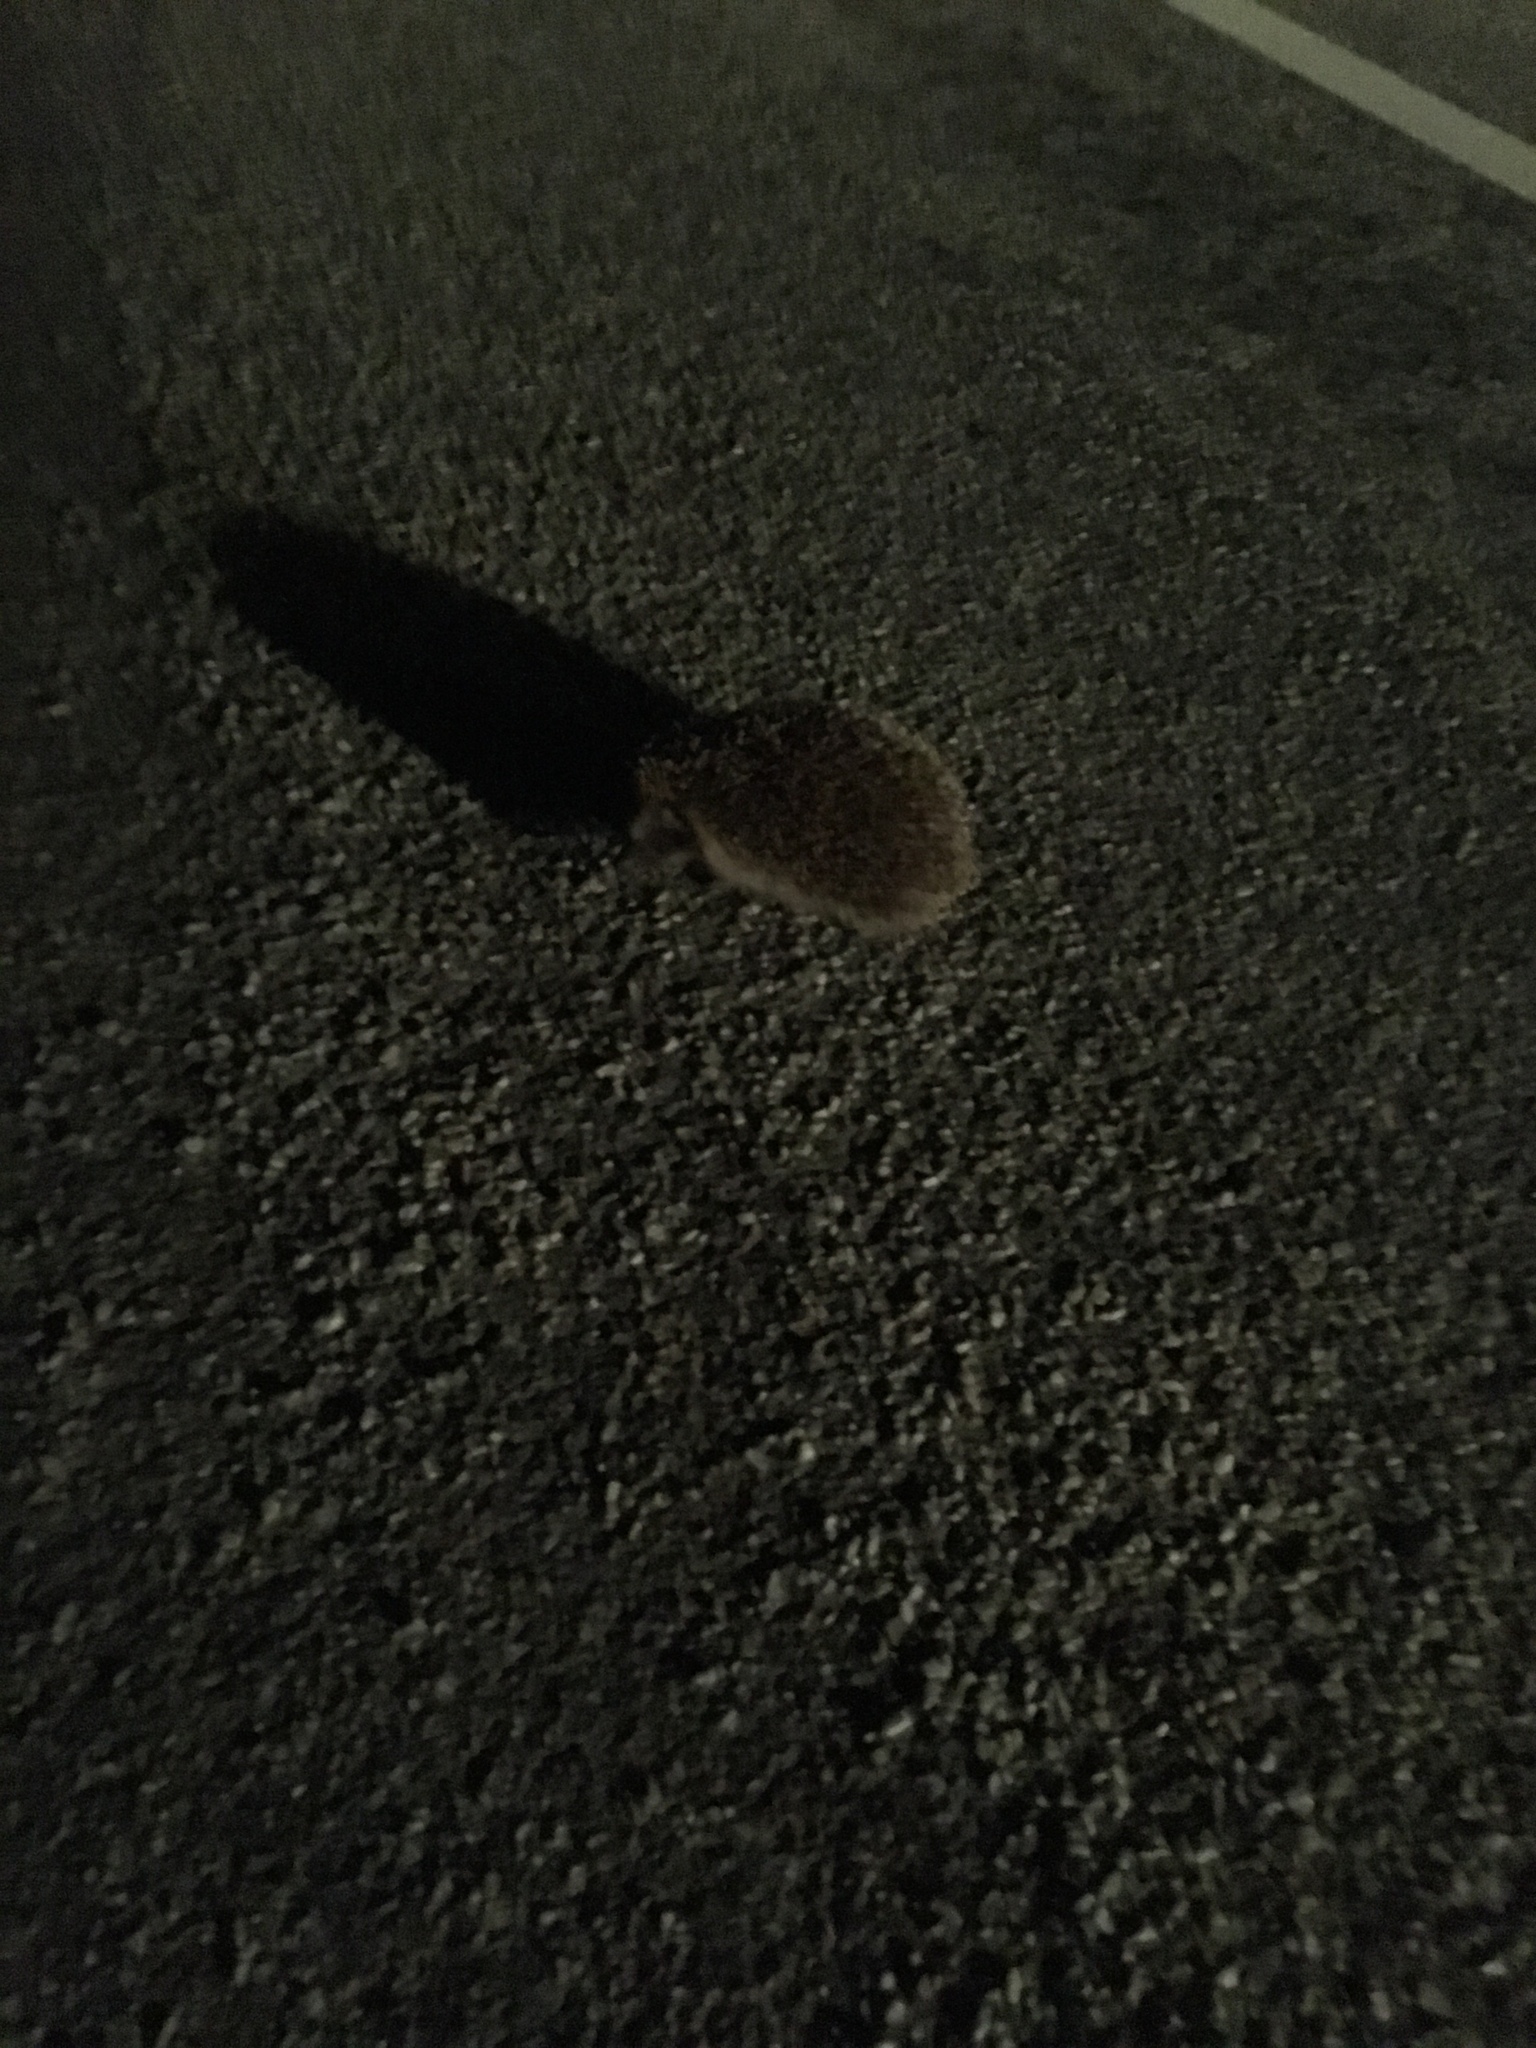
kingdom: Animalia
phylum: Chordata
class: Mammalia
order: Erinaceomorpha
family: Erinaceidae
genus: Erinaceus
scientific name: Erinaceus europaeus
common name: West european hedgehog
